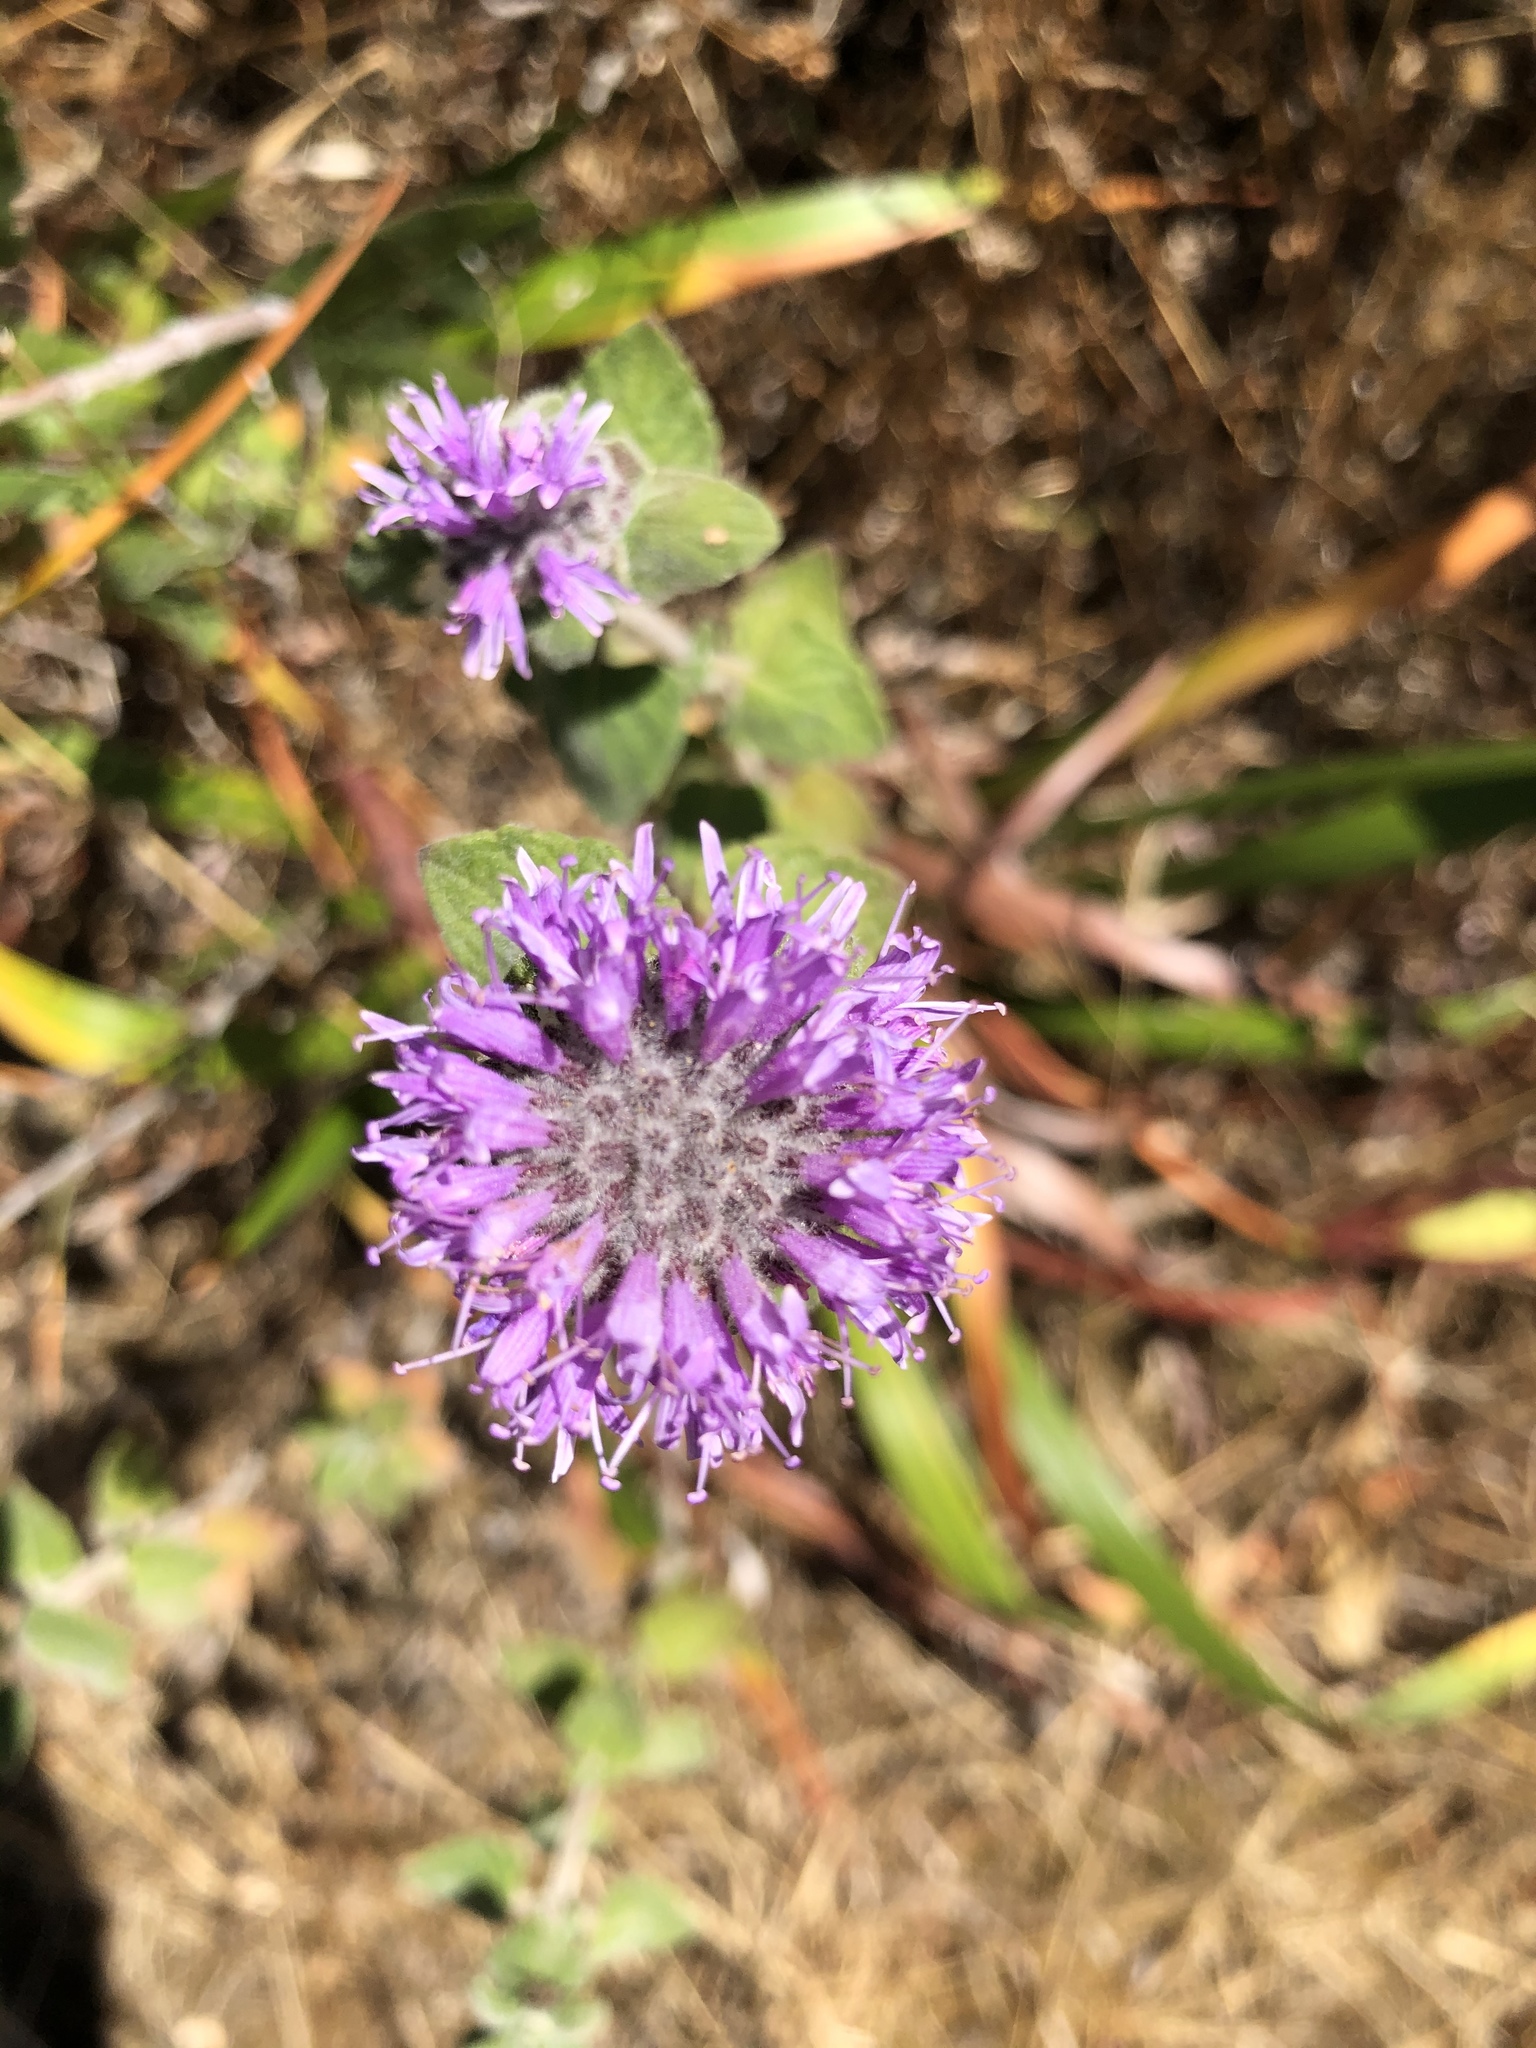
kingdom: Plantae
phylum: Tracheophyta
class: Magnoliopsida
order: Lamiales
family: Lamiaceae
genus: Monardella
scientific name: Monardella odoratissima
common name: Pacific monardella
